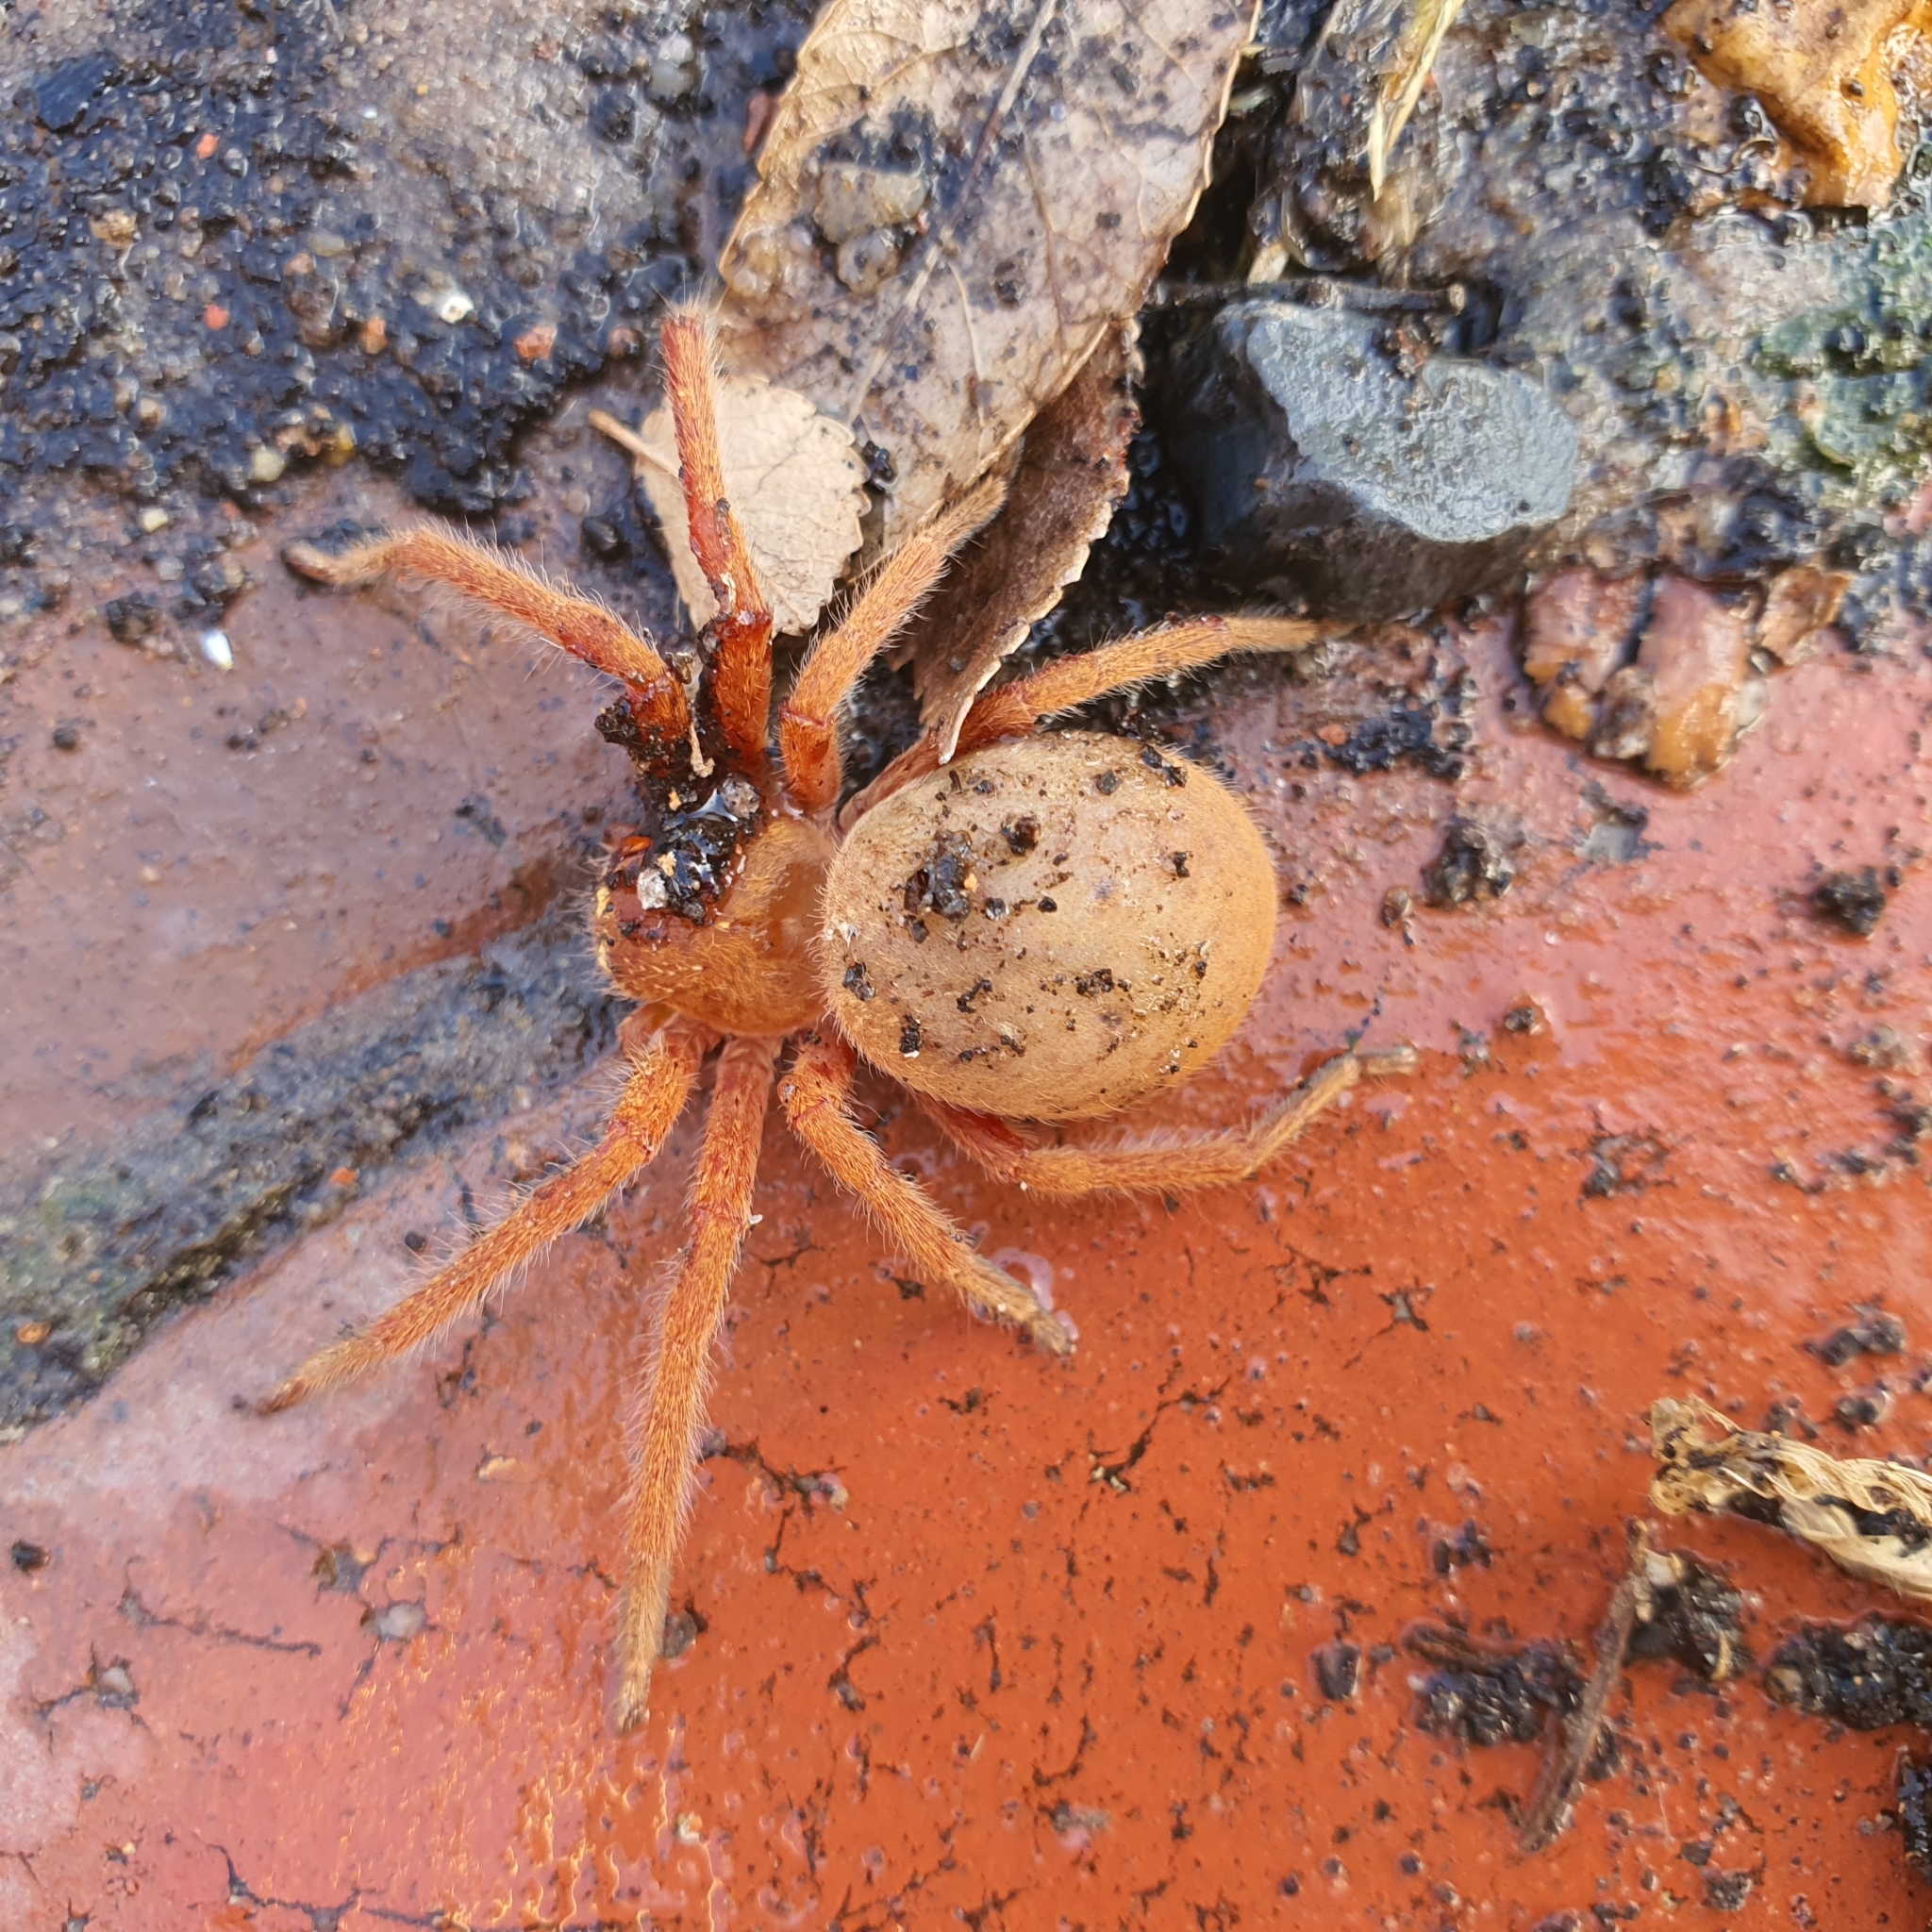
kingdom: Animalia
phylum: Arthropoda
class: Arachnida
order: Araneae
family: Sparassidae
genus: Neosparassus
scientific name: Neosparassus diana
